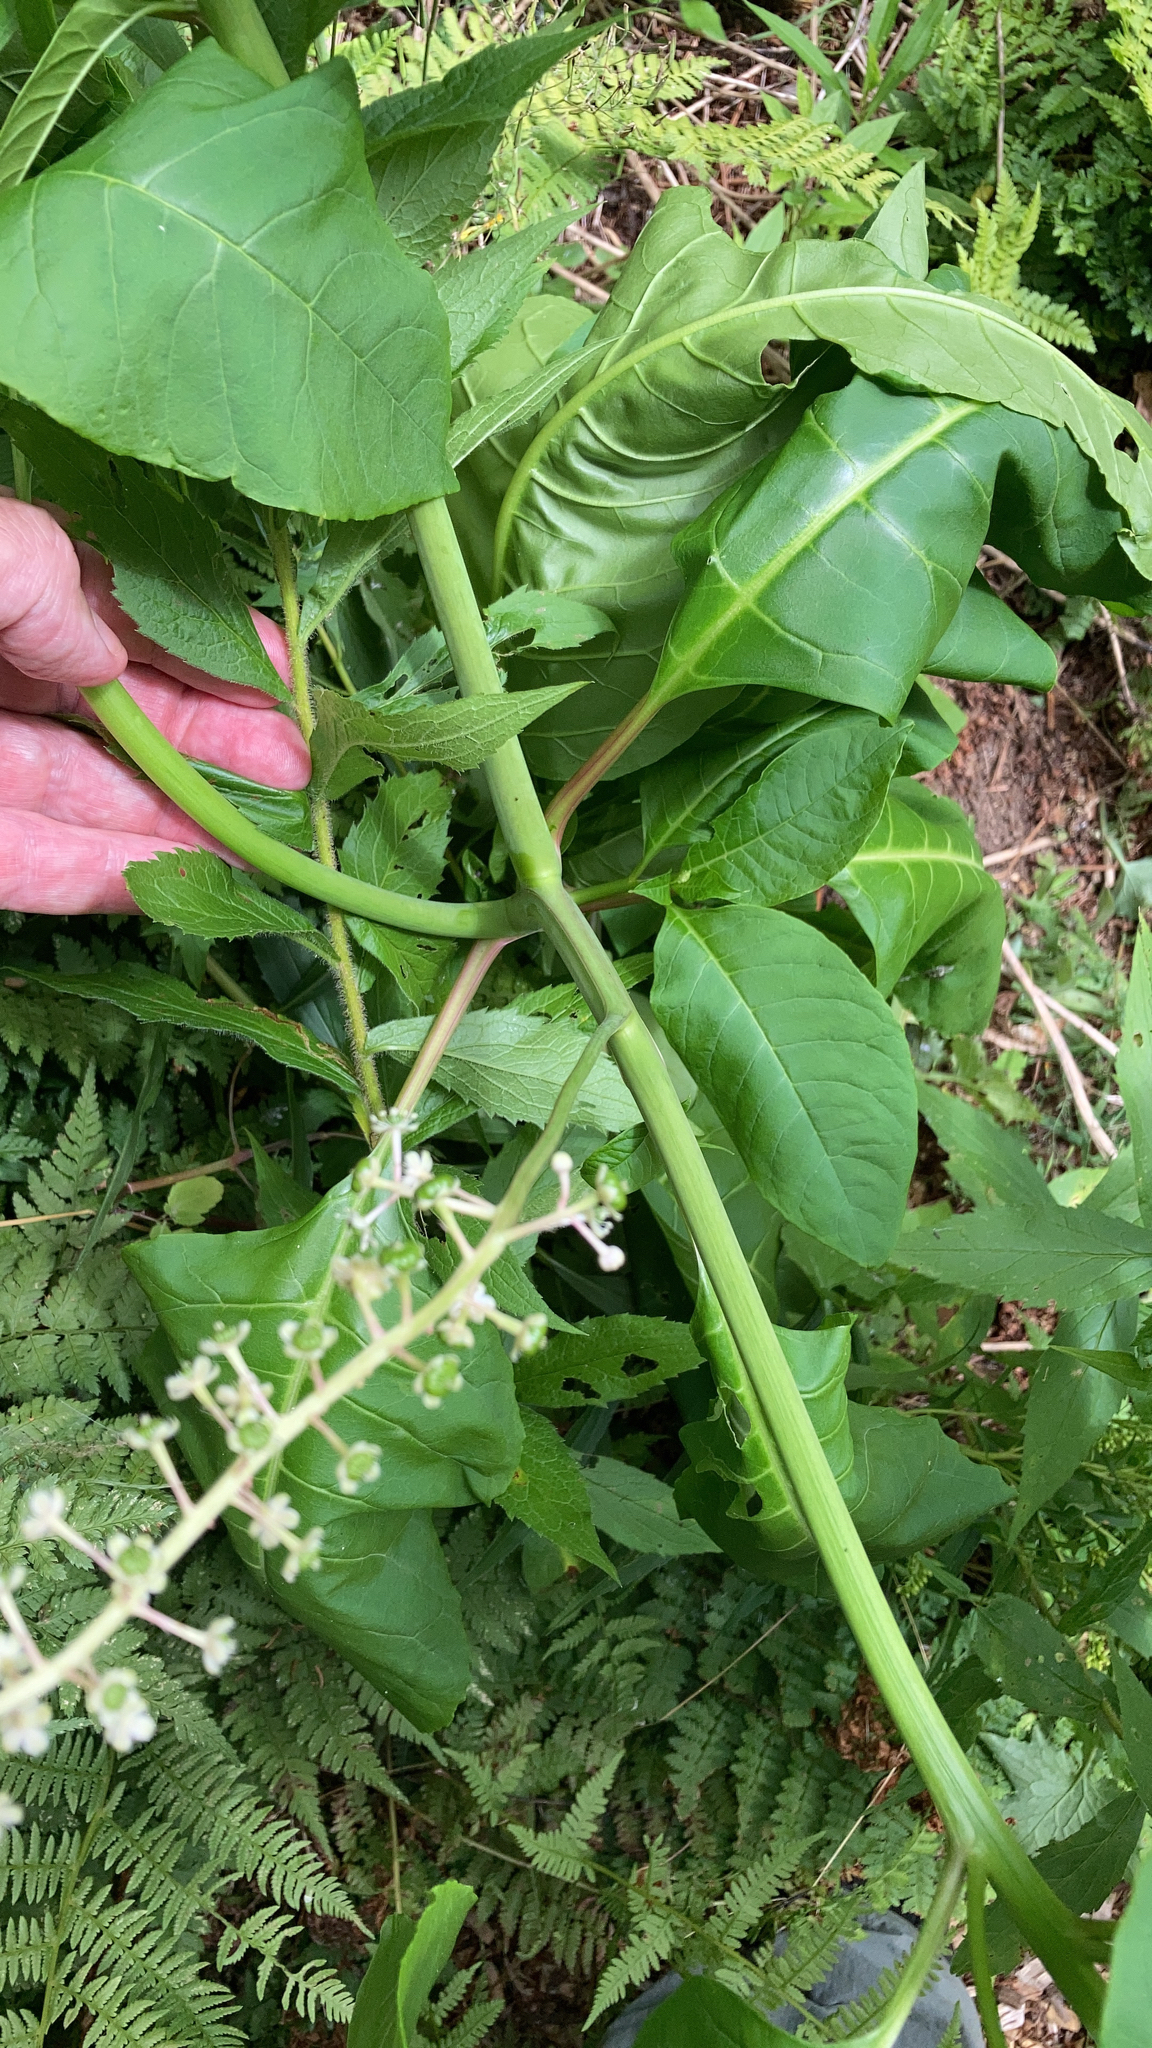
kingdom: Plantae
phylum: Tracheophyta
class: Magnoliopsida
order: Caryophyllales
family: Phytolaccaceae
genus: Phytolacca
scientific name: Phytolacca americana
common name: American pokeweed
